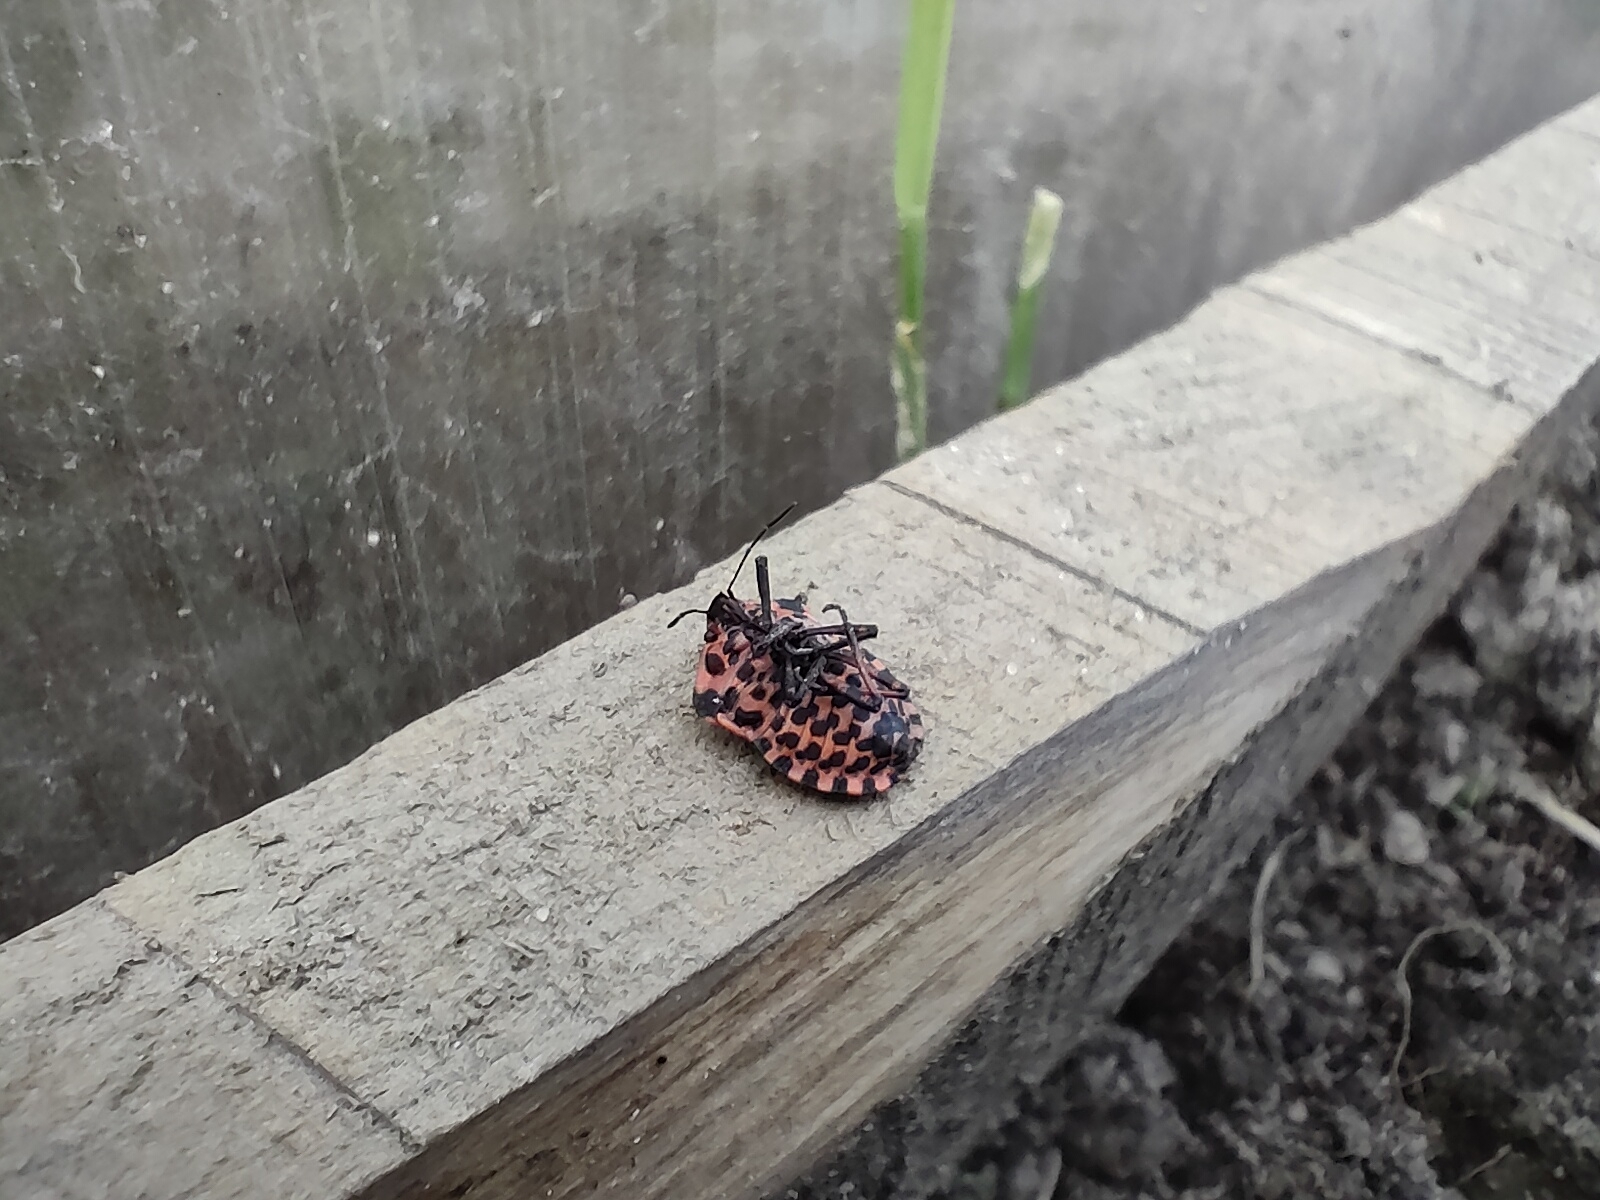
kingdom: Animalia
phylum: Arthropoda
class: Insecta
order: Hemiptera
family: Pentatomidae
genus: Graphosoma
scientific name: Graphosoma italicum
